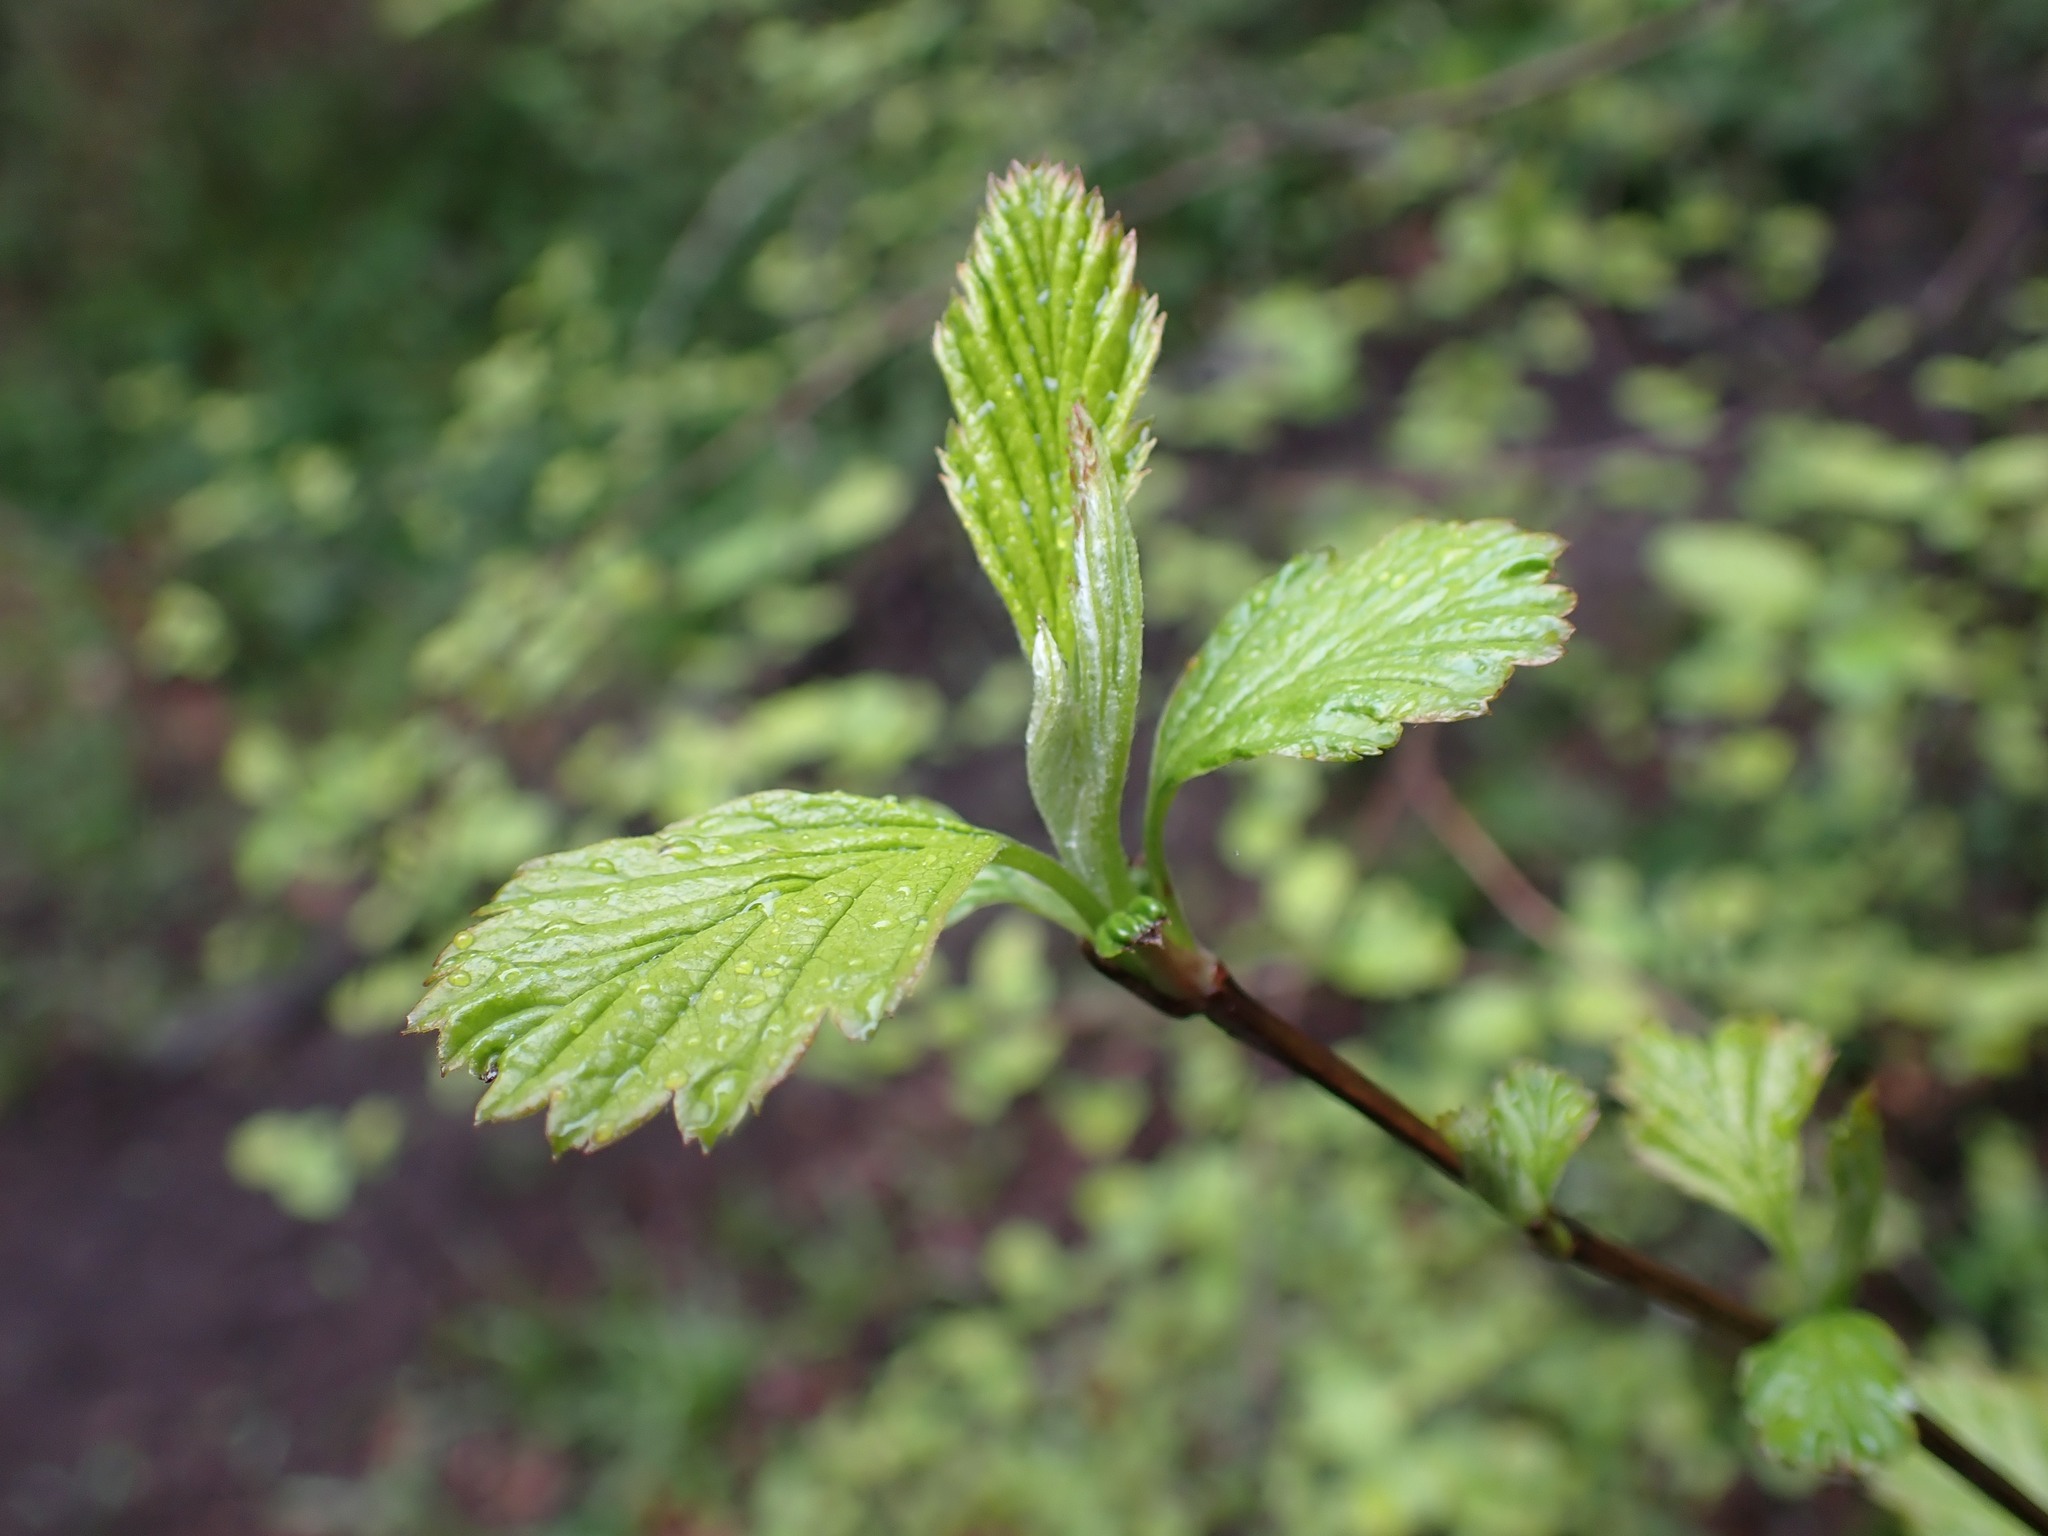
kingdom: Plantae
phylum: Tracheophyta
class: Magnoliopsida
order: Rosales
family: Rosaceae
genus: Holodiscus
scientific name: Holodiscus discolor
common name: Oceanspray
